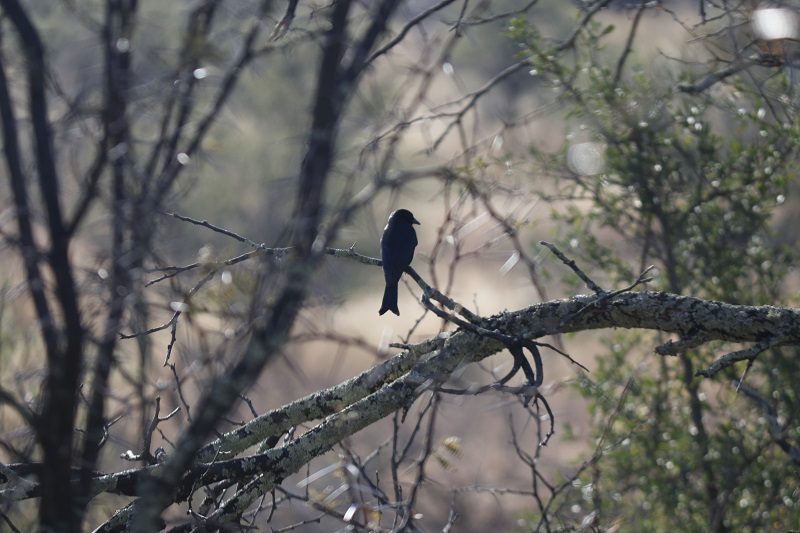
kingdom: Animalia
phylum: Chordata
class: Aves
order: Passeriformes
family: Dicruridae
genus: Dicrurus
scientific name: Dicrurus adsimilis
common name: Fork-tailed drongo
